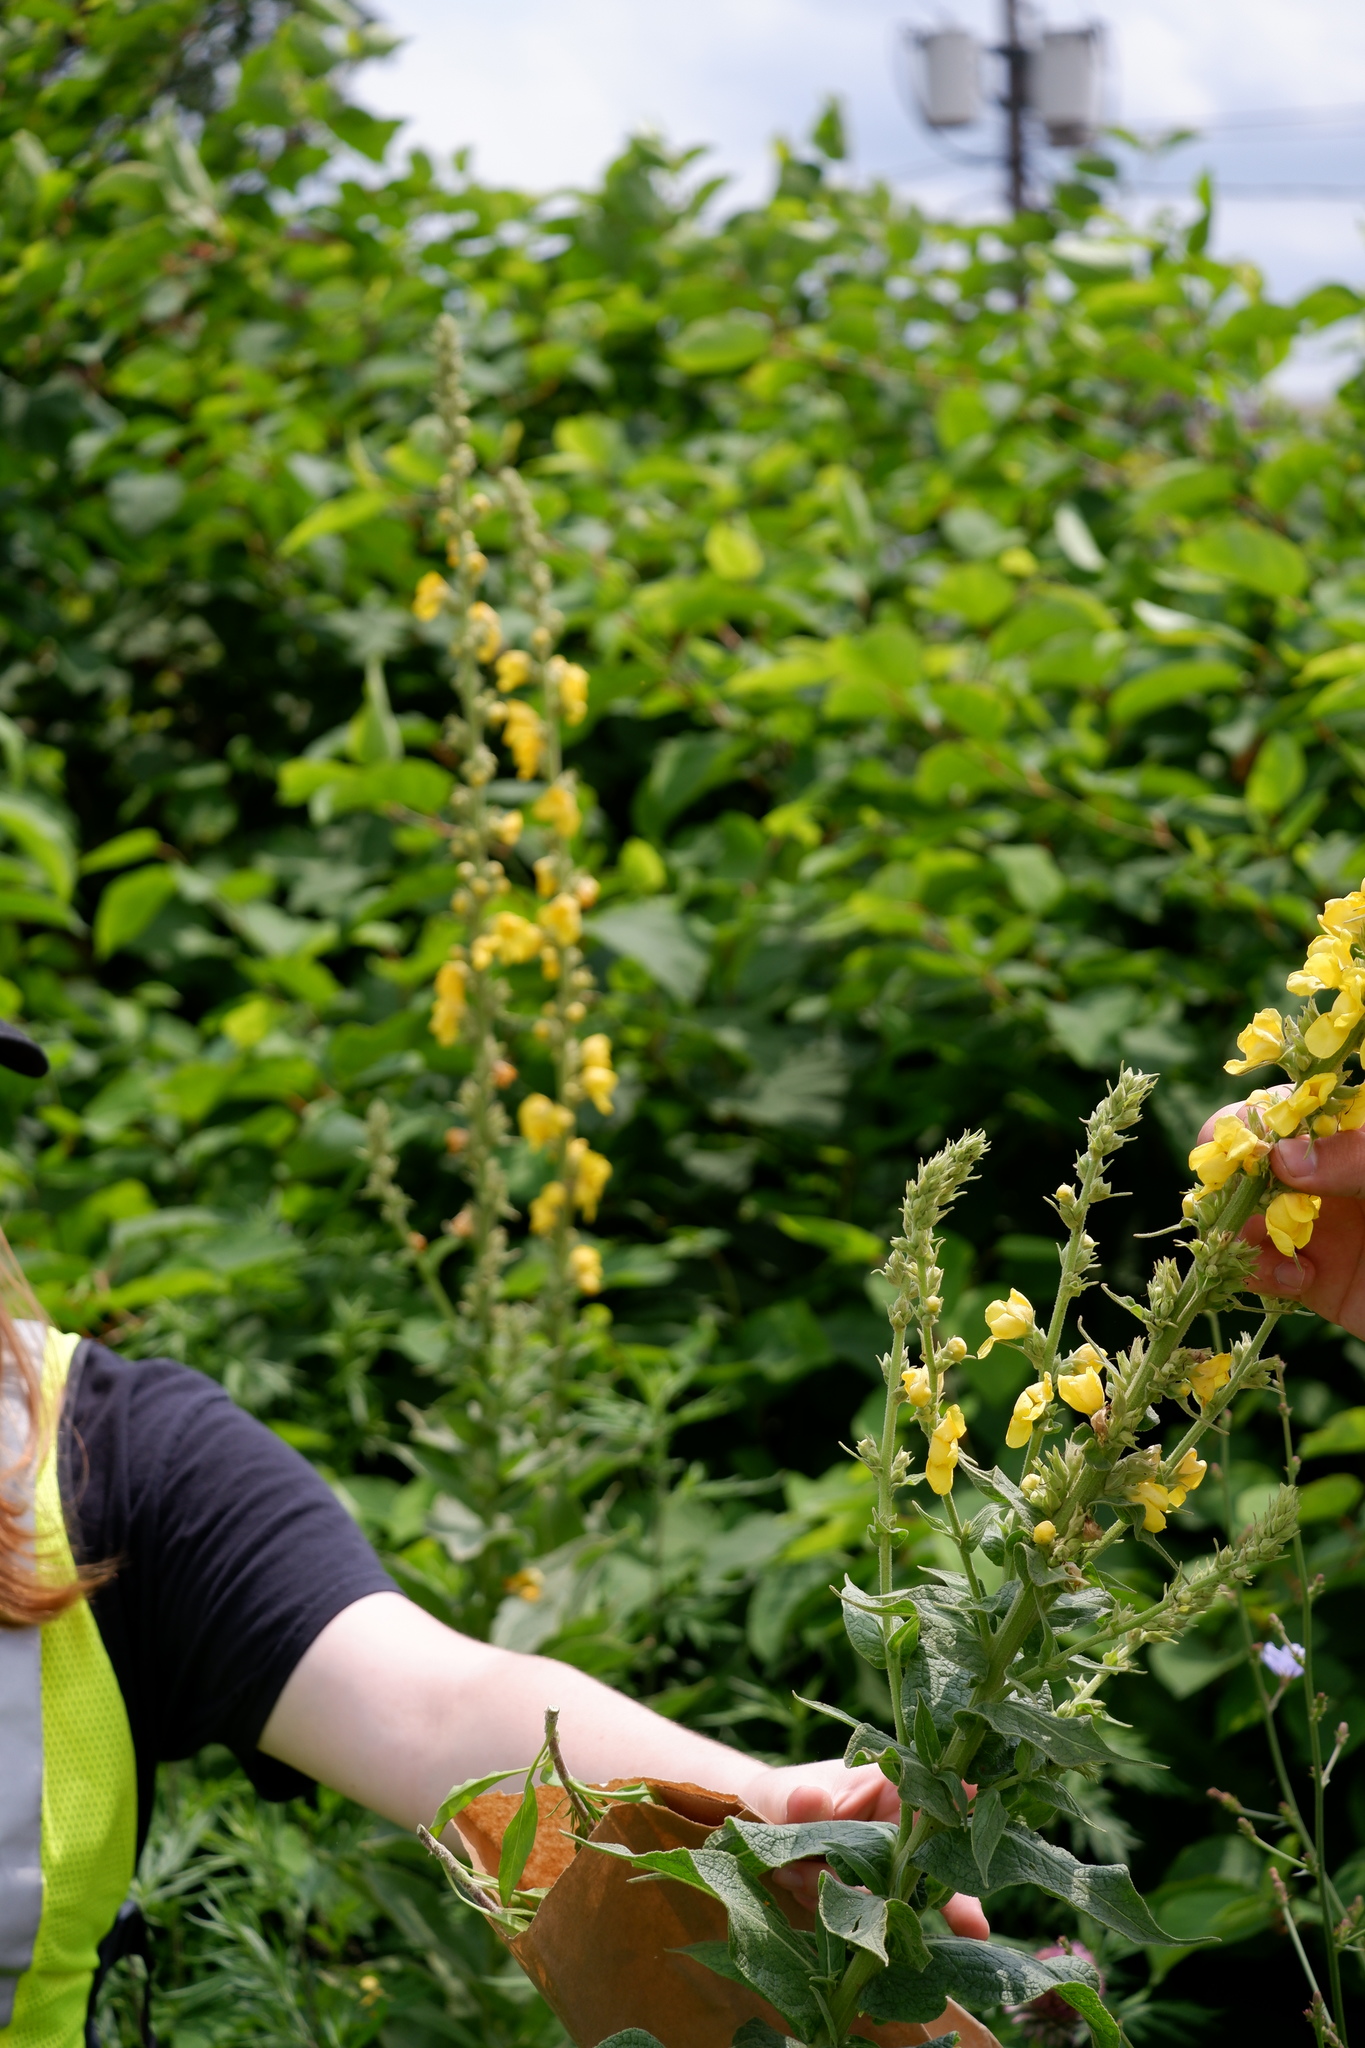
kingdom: Plantae
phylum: Tracheophyta
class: Magnoliopsida
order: Lamiales
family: Scrophulariaceae
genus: Verbascum
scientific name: Verbascum phlomoides
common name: Orange mullein
